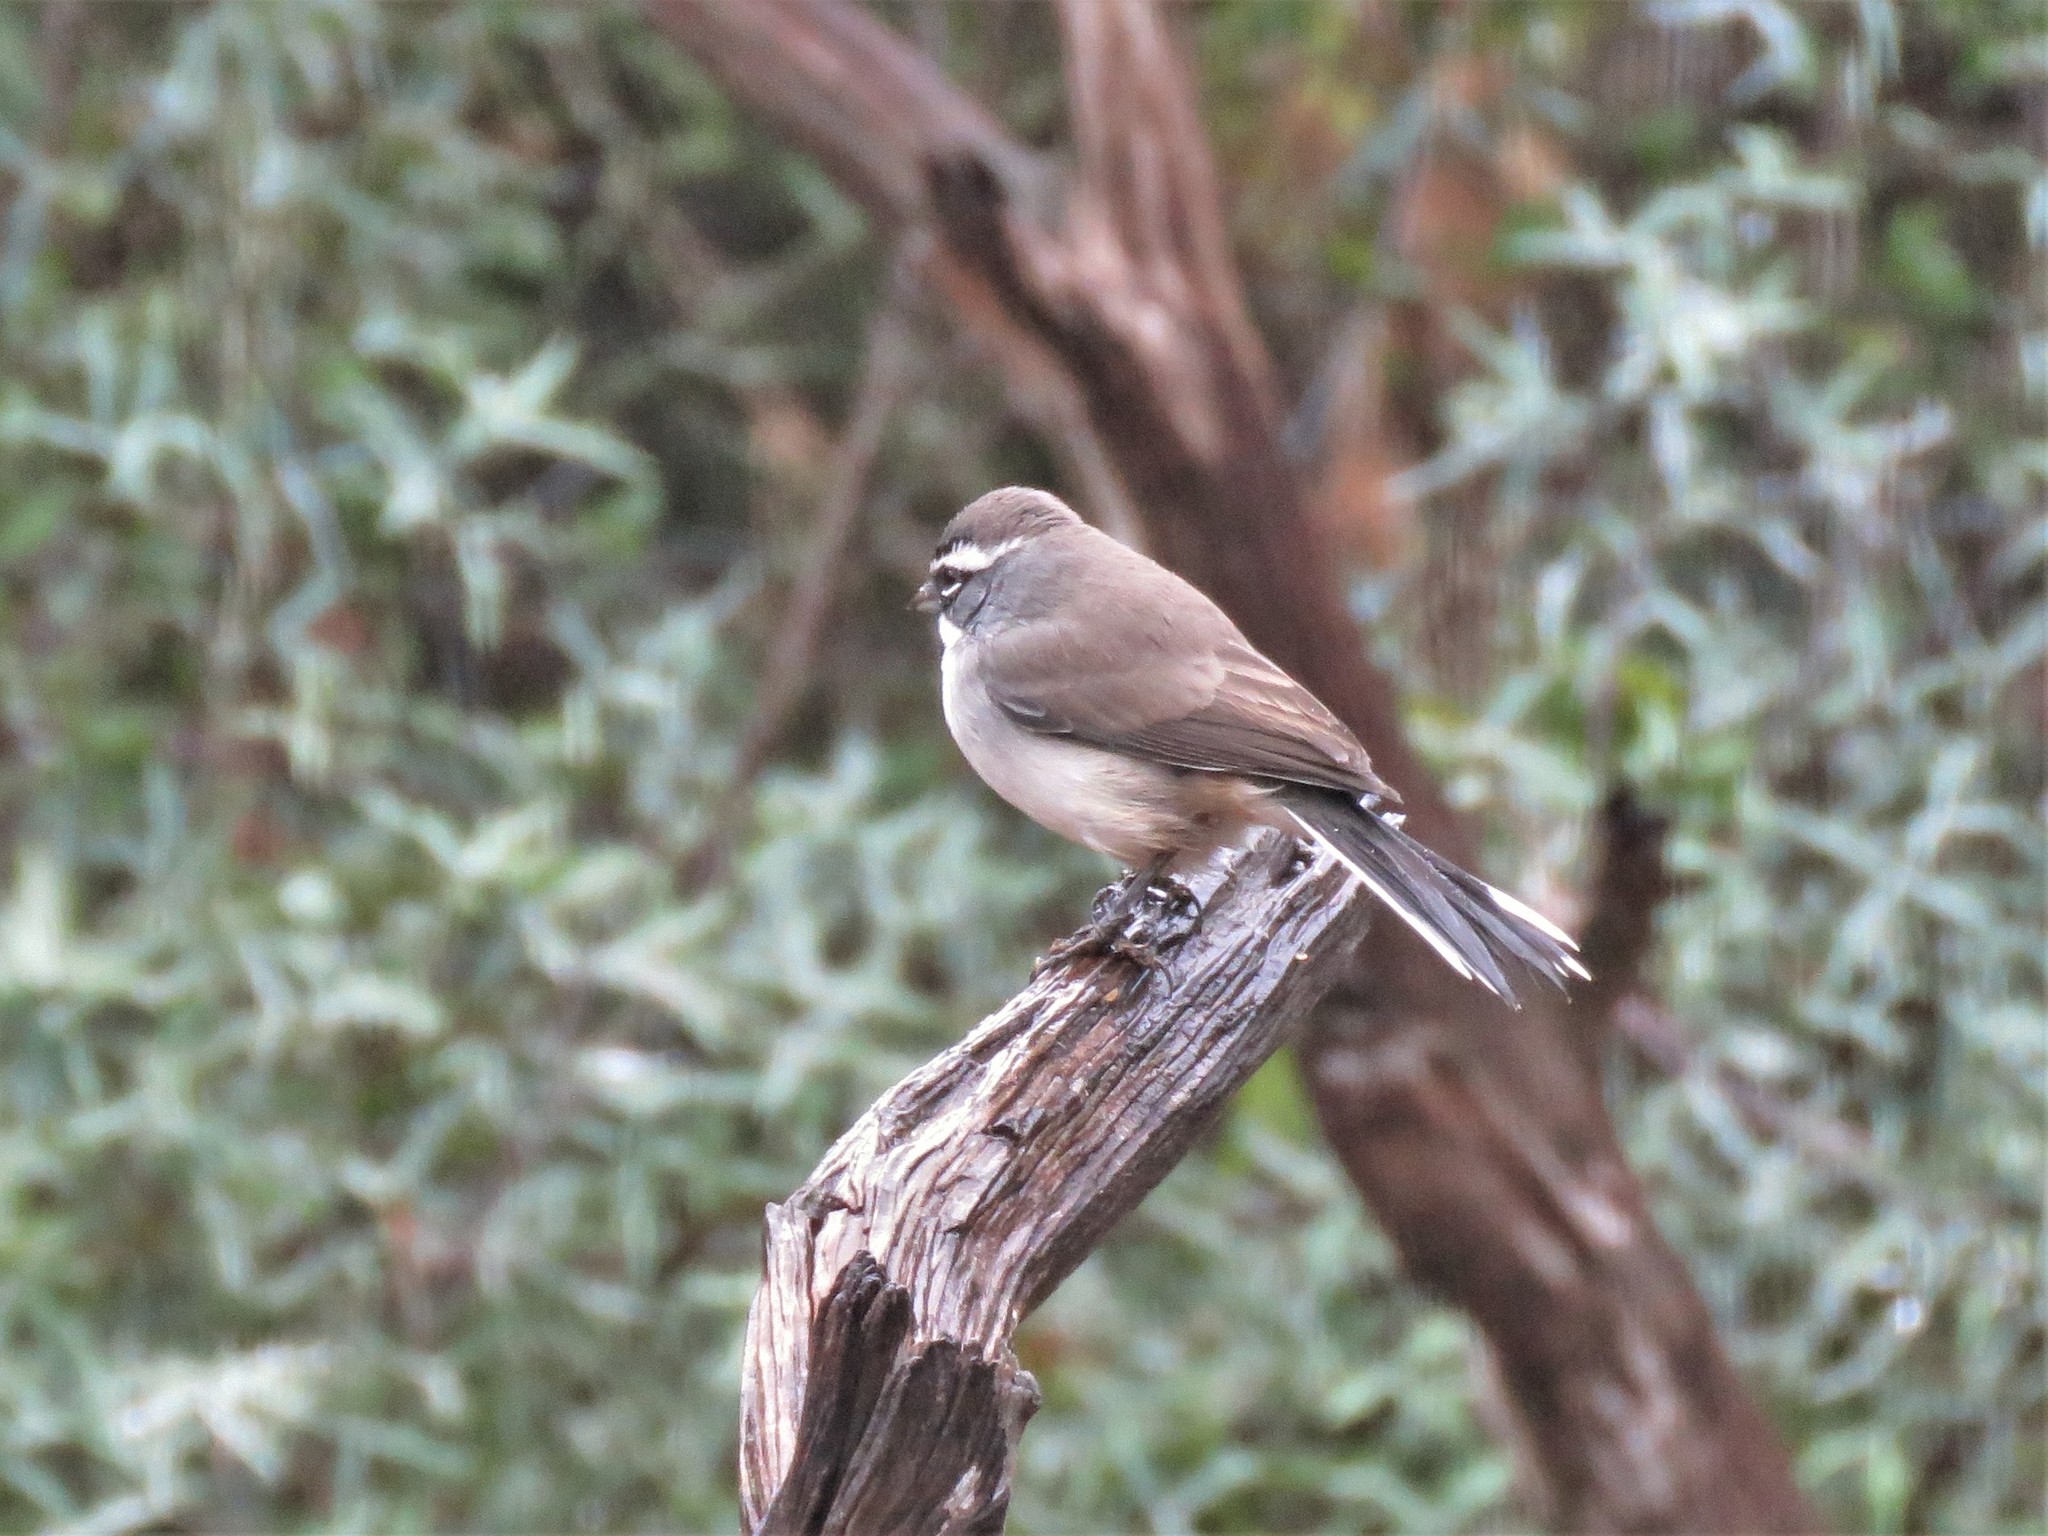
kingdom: Animalia
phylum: Chordata
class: Aves
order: Passeriformes
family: Passerellidae
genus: Amphispiza
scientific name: Amphispiza bilineata
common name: Black-throated sparrow
